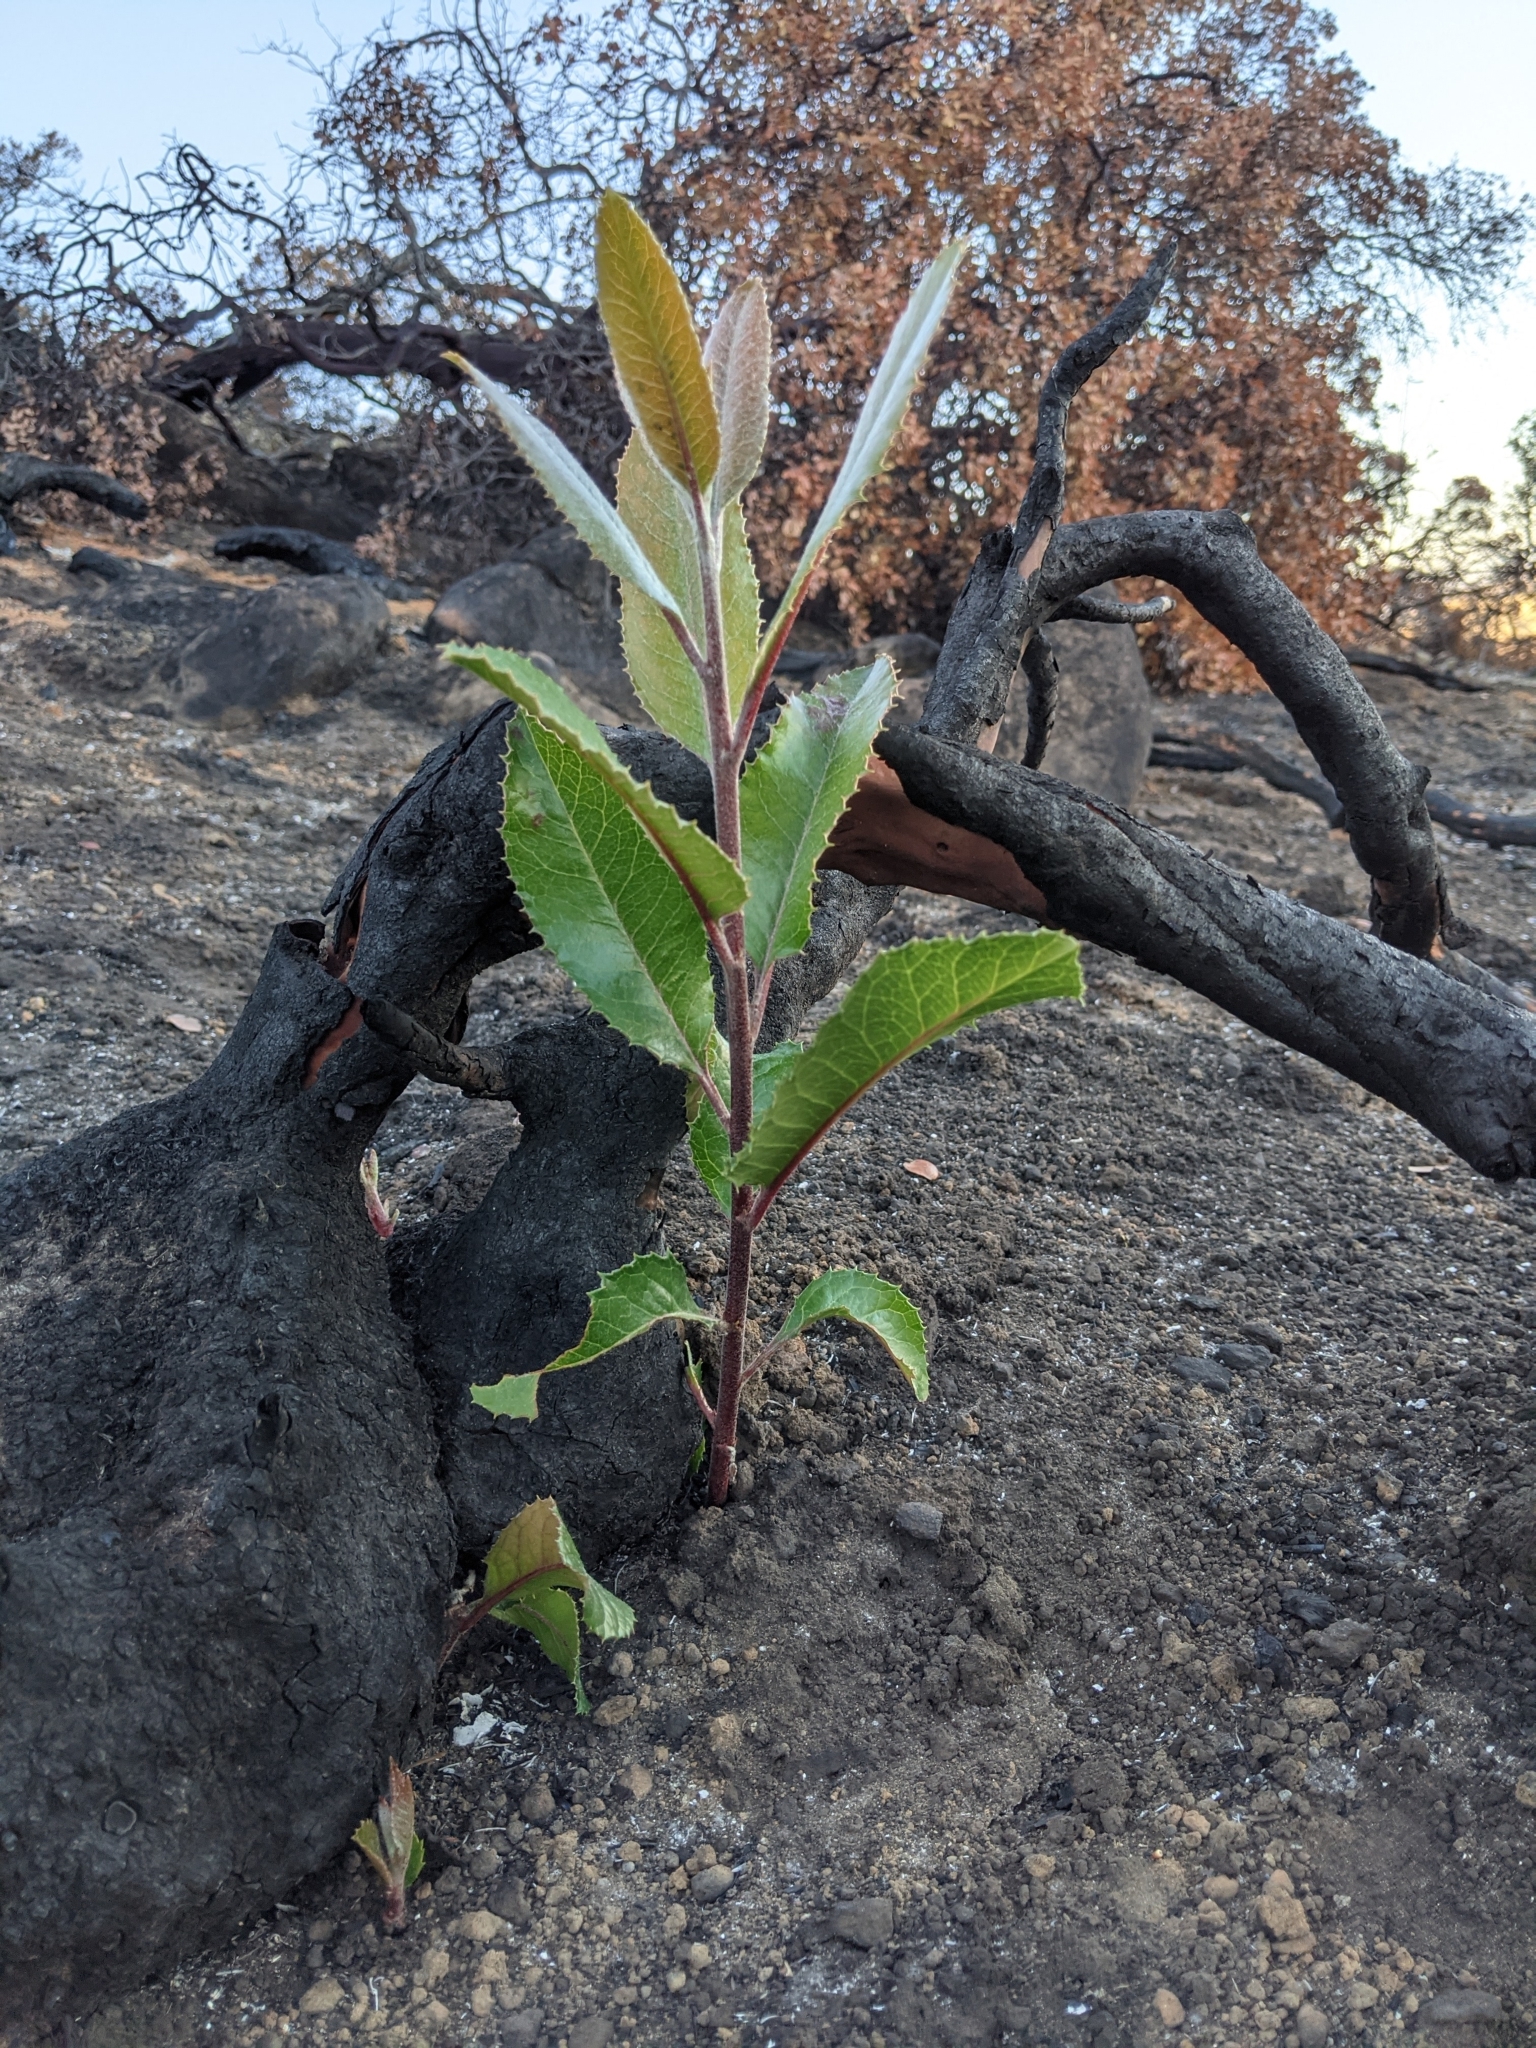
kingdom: Plantae
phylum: Tracheophyta
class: Magnoliopsida
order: Rosales
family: Rosaceae
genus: Heteromeles
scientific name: Heteromeles arbutifolia
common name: California-holly
